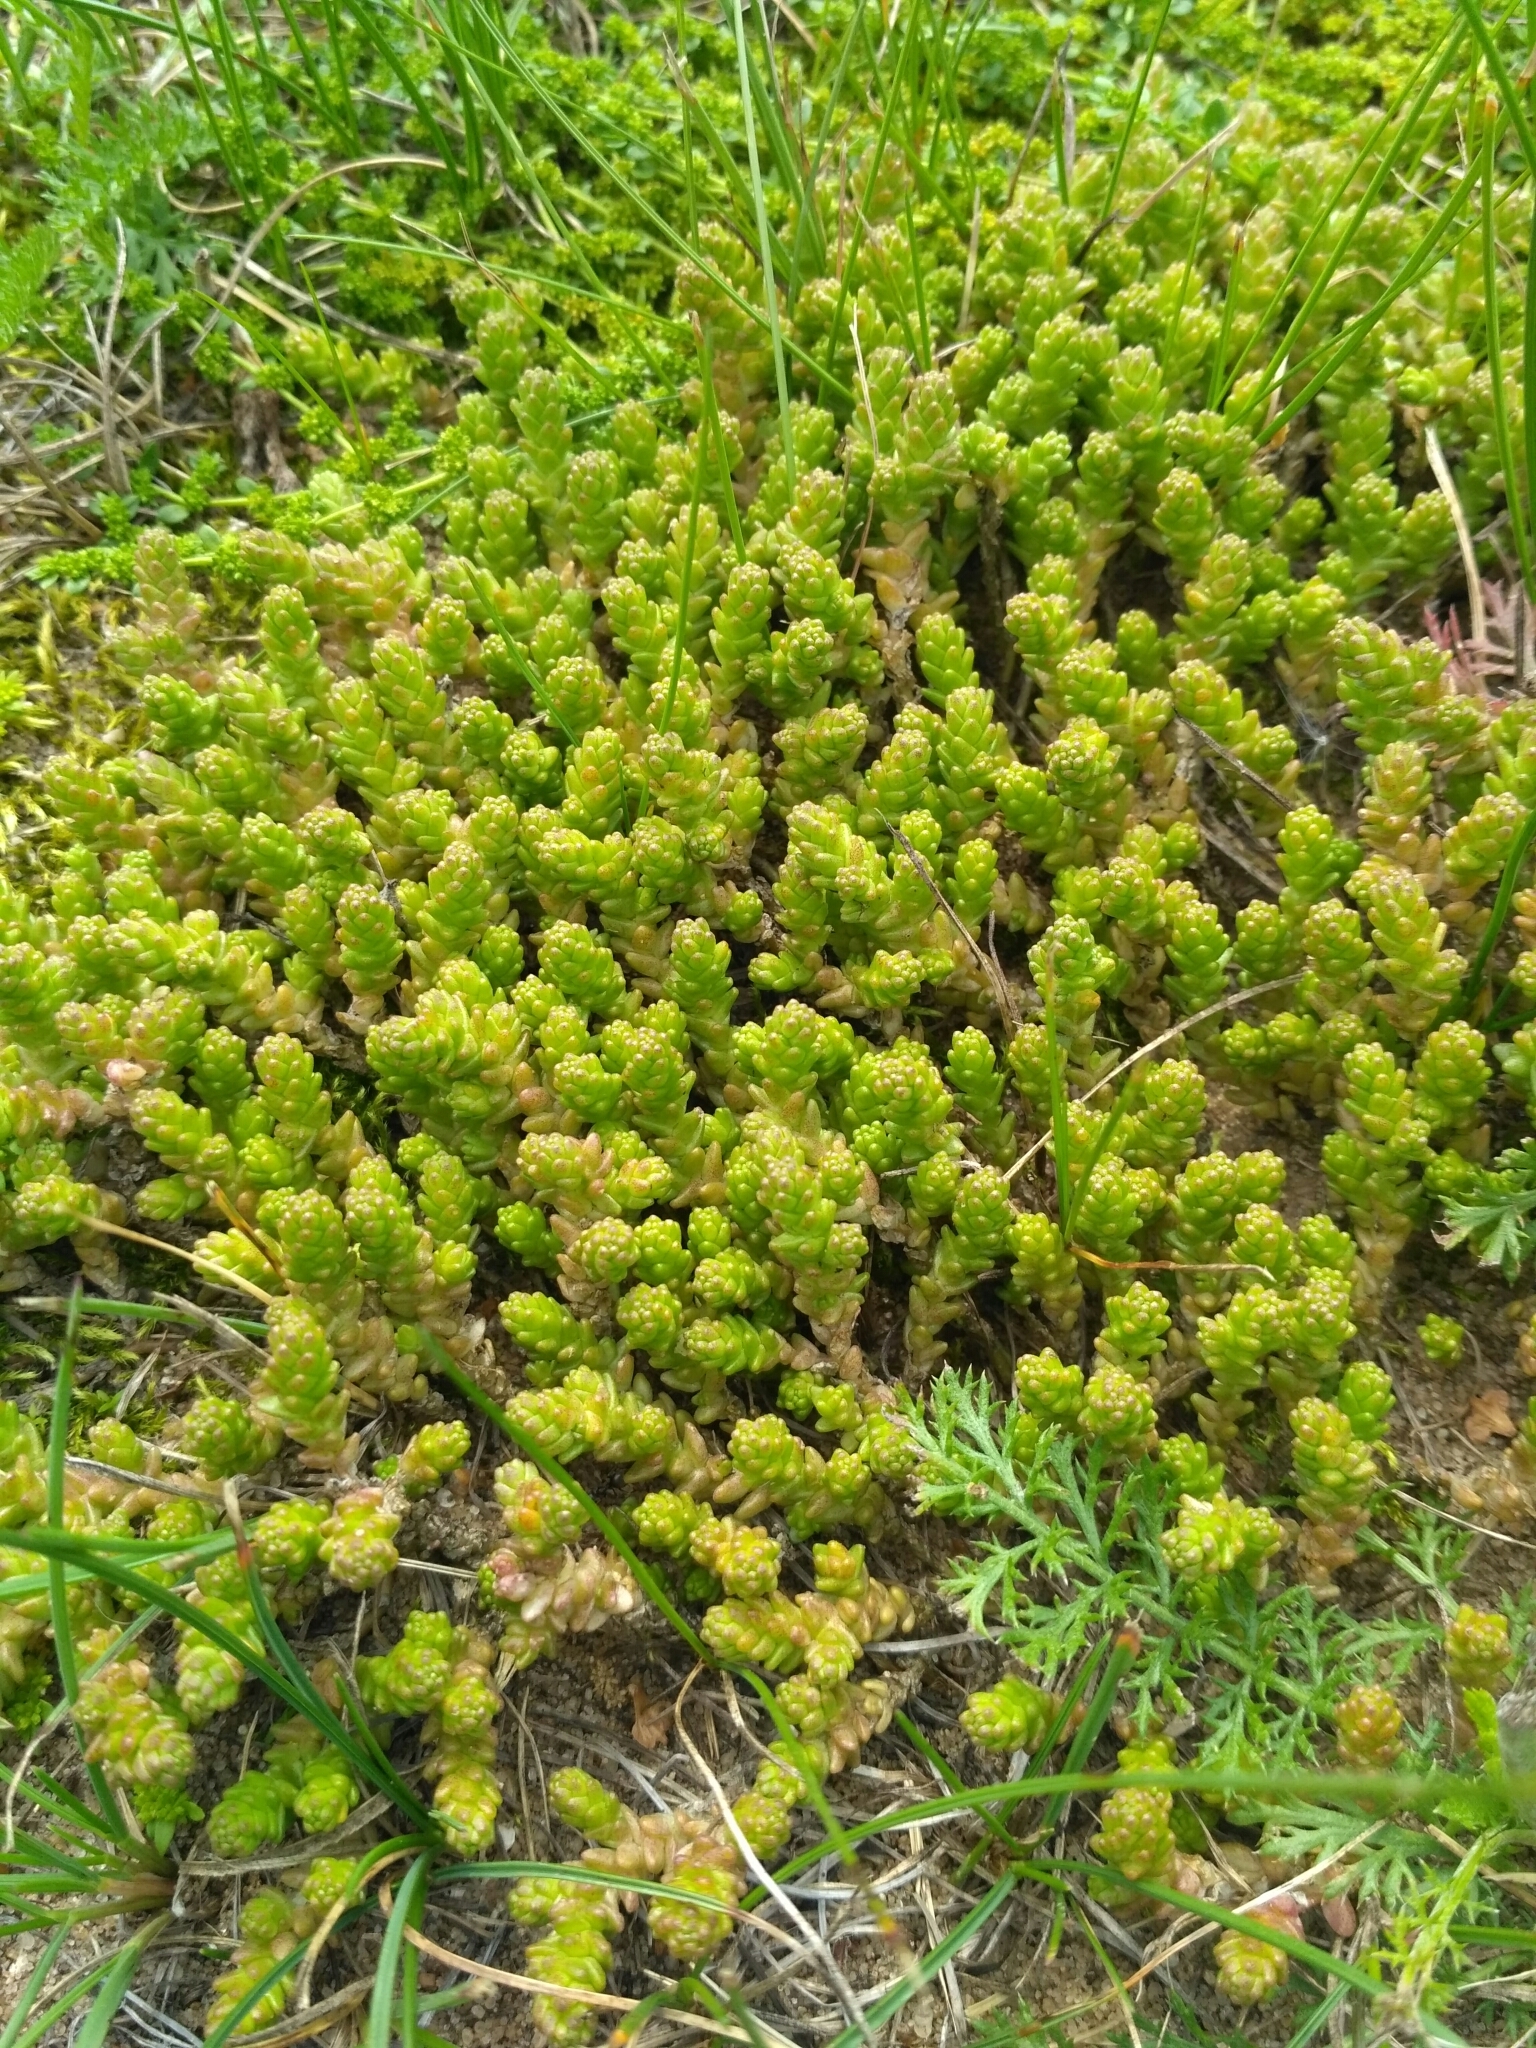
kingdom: Plantae
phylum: Tracheophyta
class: Magnoliopsida
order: Saxifragales
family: Crassulaceae
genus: Sedum
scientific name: Sedum acre
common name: Biting stonecrop
